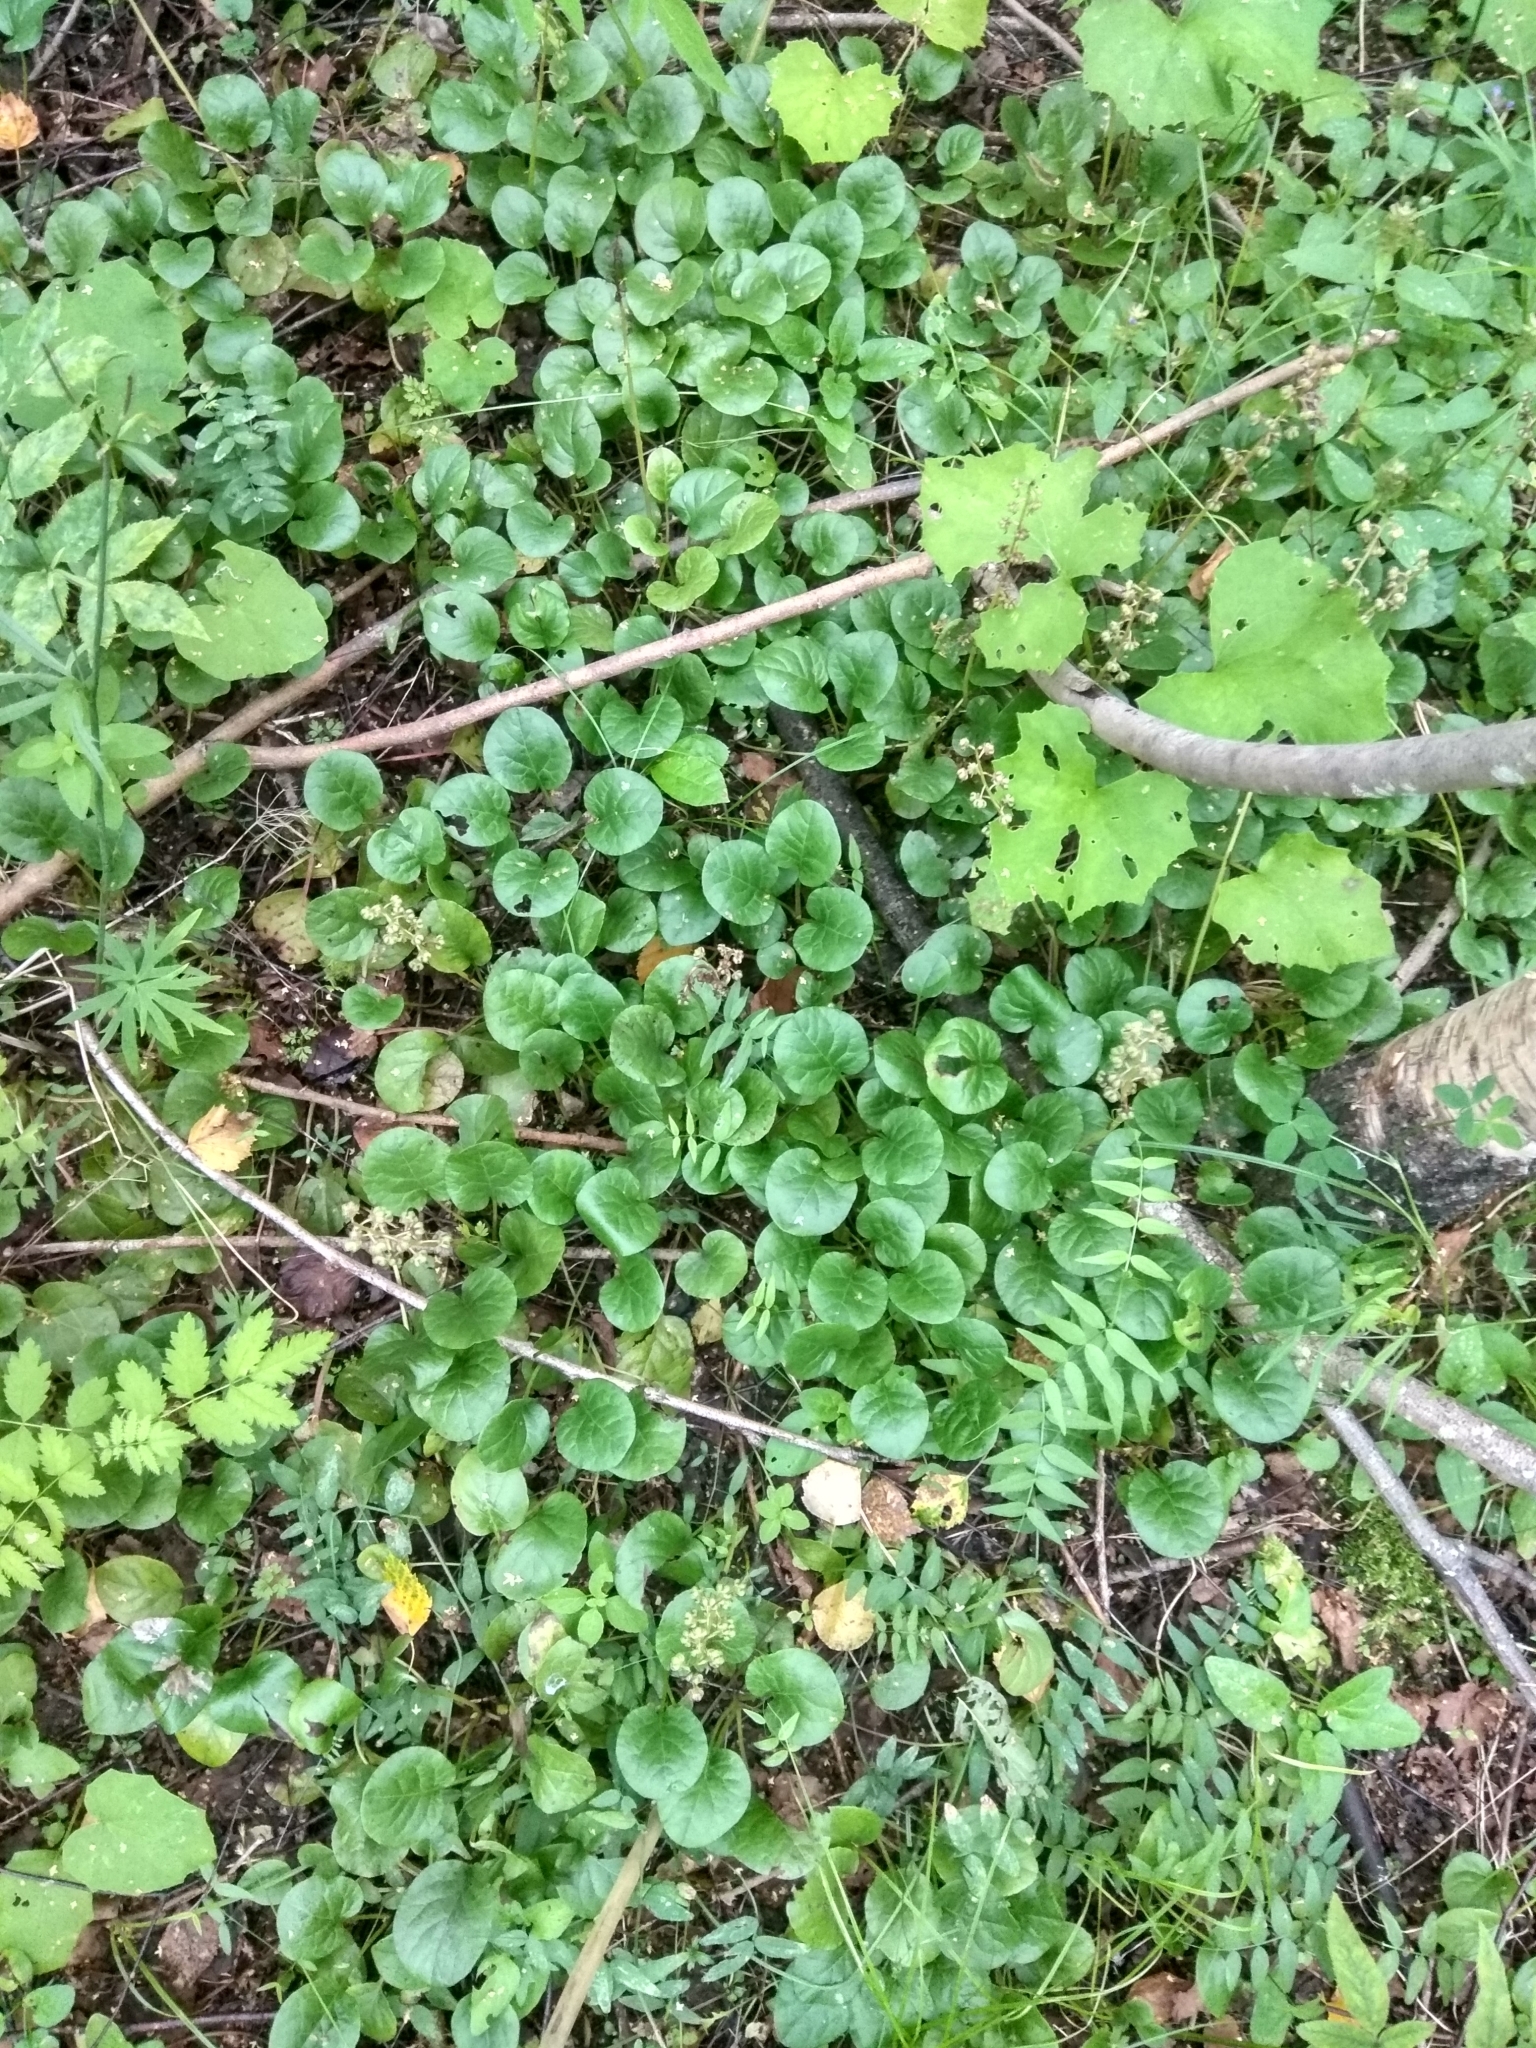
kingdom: Plantae
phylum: Tracheophyta
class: Magnoliopsida
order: Ericales
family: Ericaceae
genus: Pyrola
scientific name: Pyrola rotundifolia
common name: Round-leaved wintergreen
